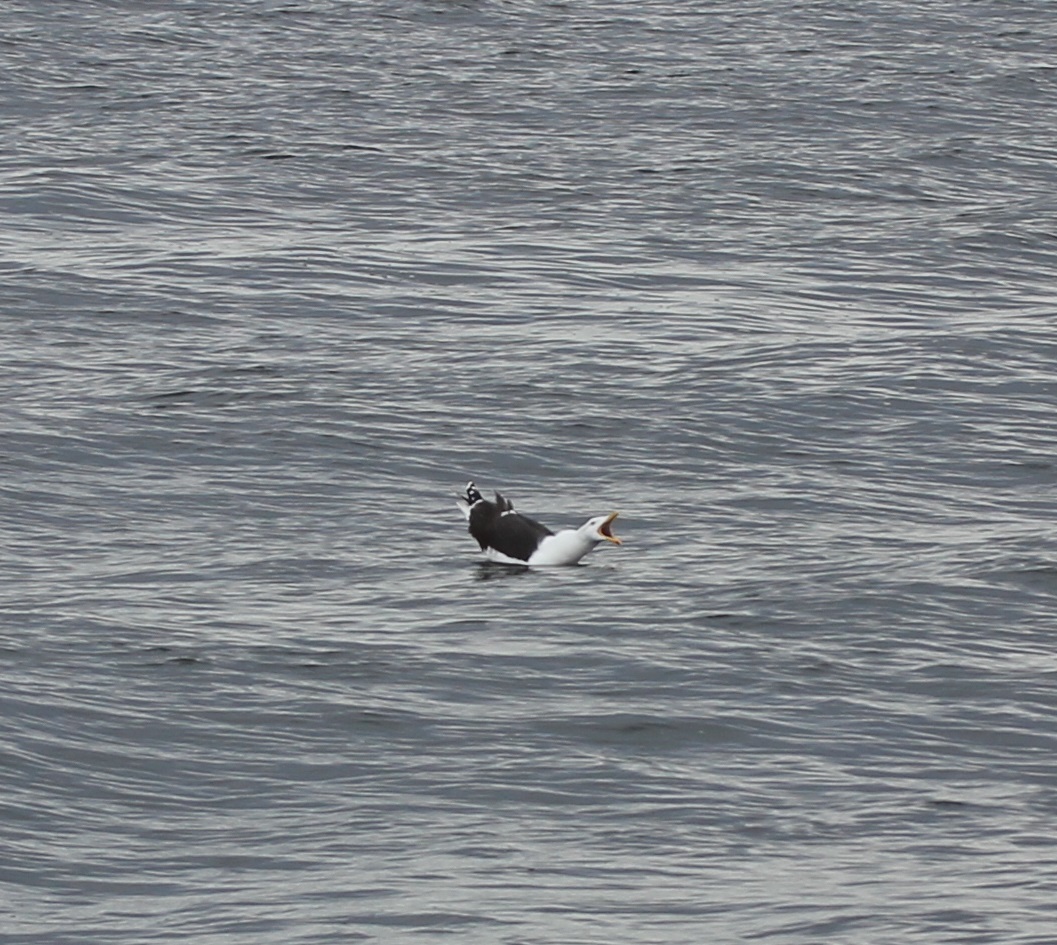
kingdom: Animalia
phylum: Chordata
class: Aves
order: Charadriiformes
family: Laridae
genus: Larus
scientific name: Larus marinus
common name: Great black-backed gull
